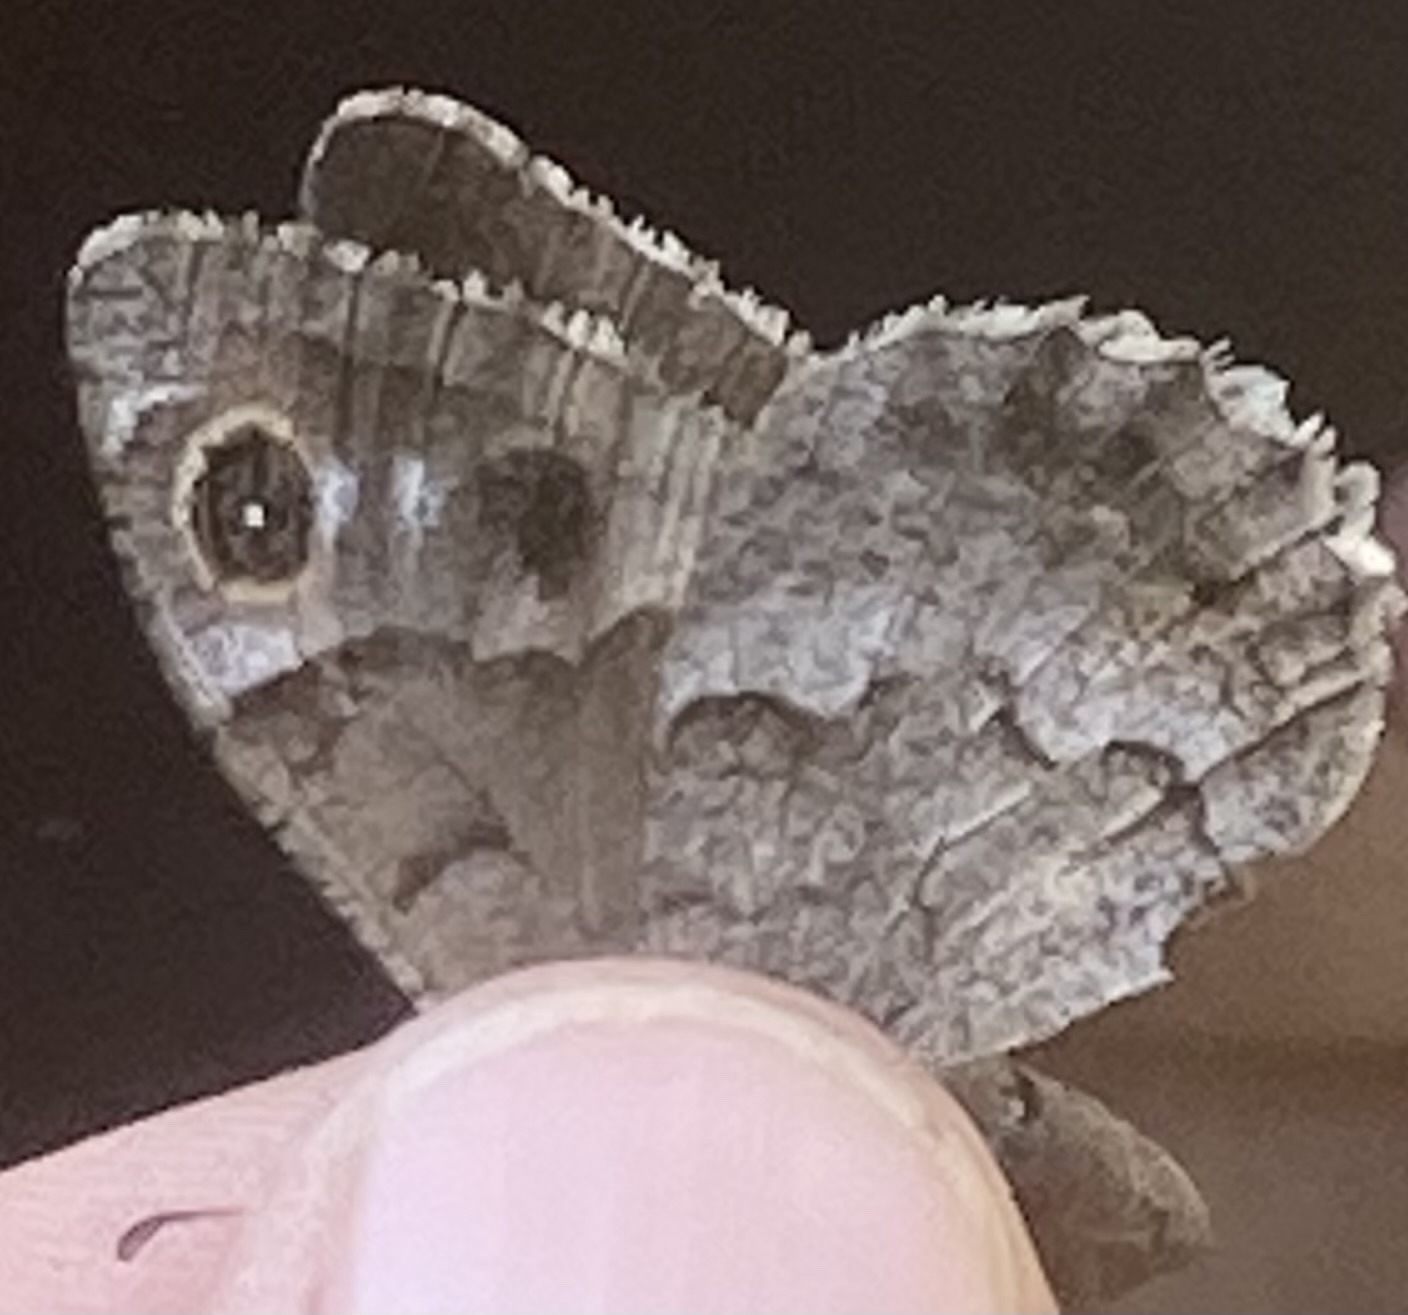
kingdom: Animalia
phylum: Arthropoda
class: Insecta
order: Lepidoptera
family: Nymphalidae
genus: Hipparchia
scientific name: Hipparchia statilinus
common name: Tree grayling
